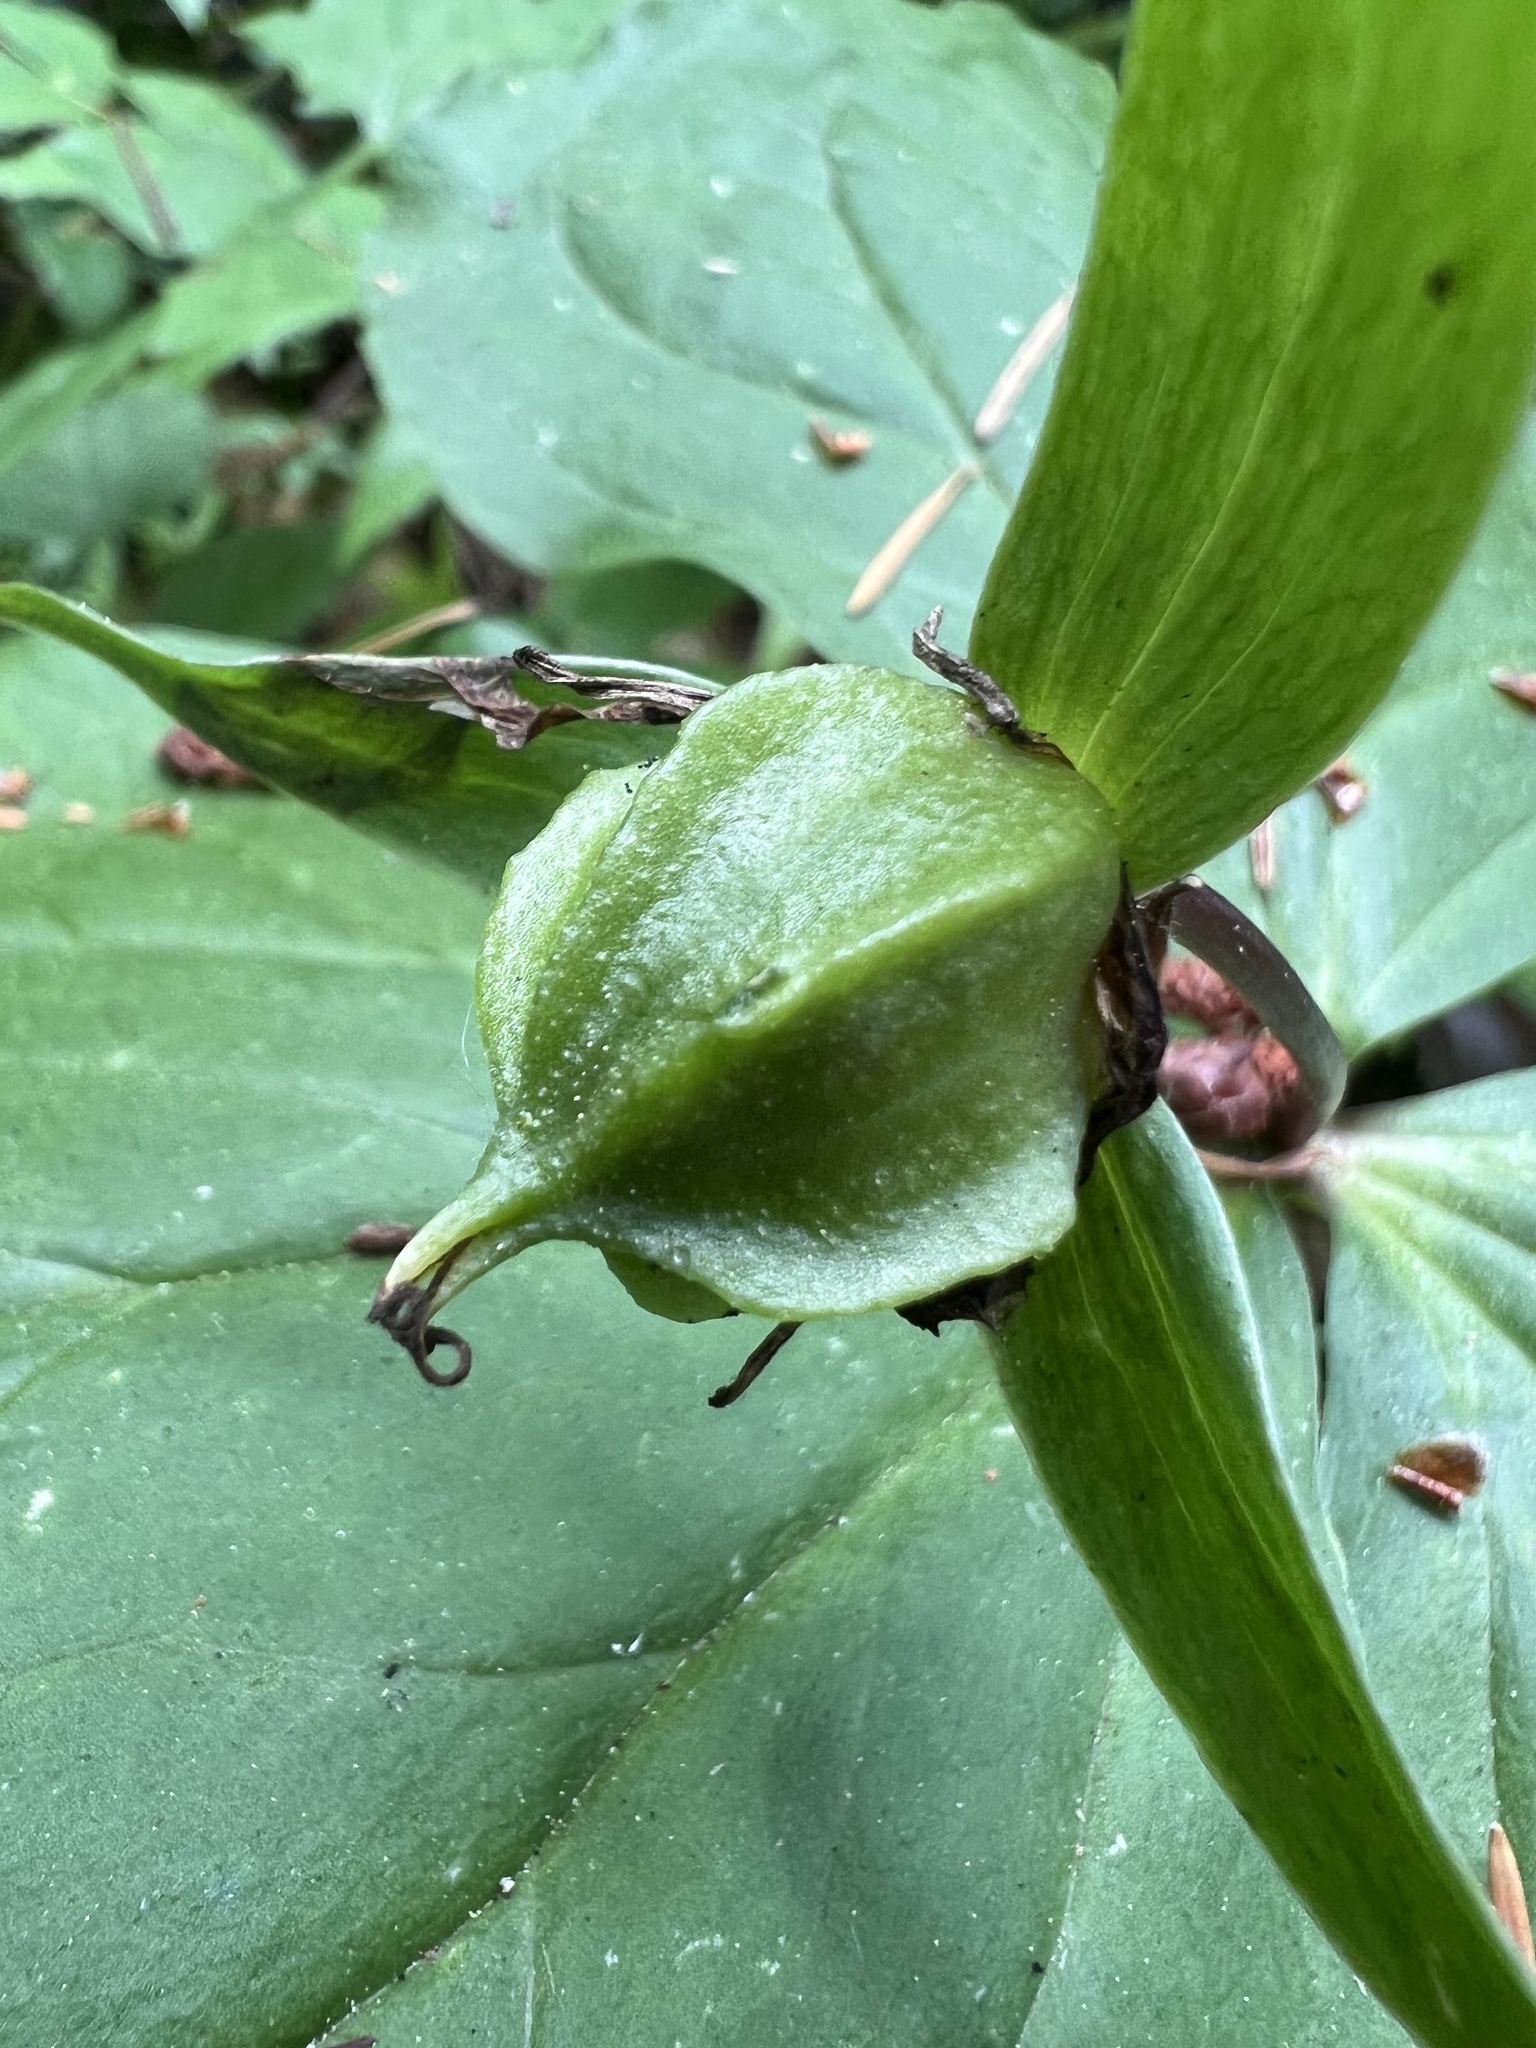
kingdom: Plantae
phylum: Tracheophyta
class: Liliopsida
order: Liliales
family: Melanthiaceae
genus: Trillium
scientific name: Trillium ovatum
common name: Pacific trillium
